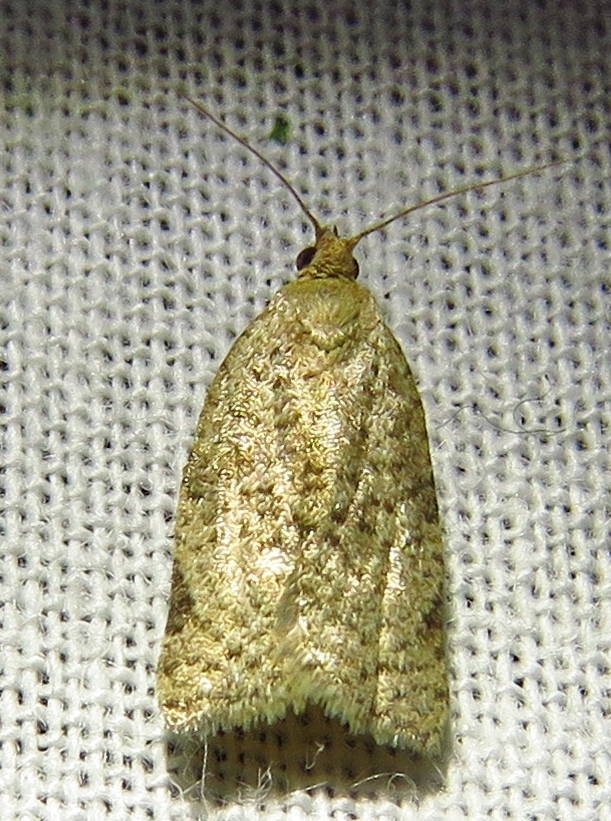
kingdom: Animalia
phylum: Arthropoda
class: Insecta
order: Lepidoptera
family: Tortricidae
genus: Clepsis
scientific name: Clepsis virescana
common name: Greenish apple moth
